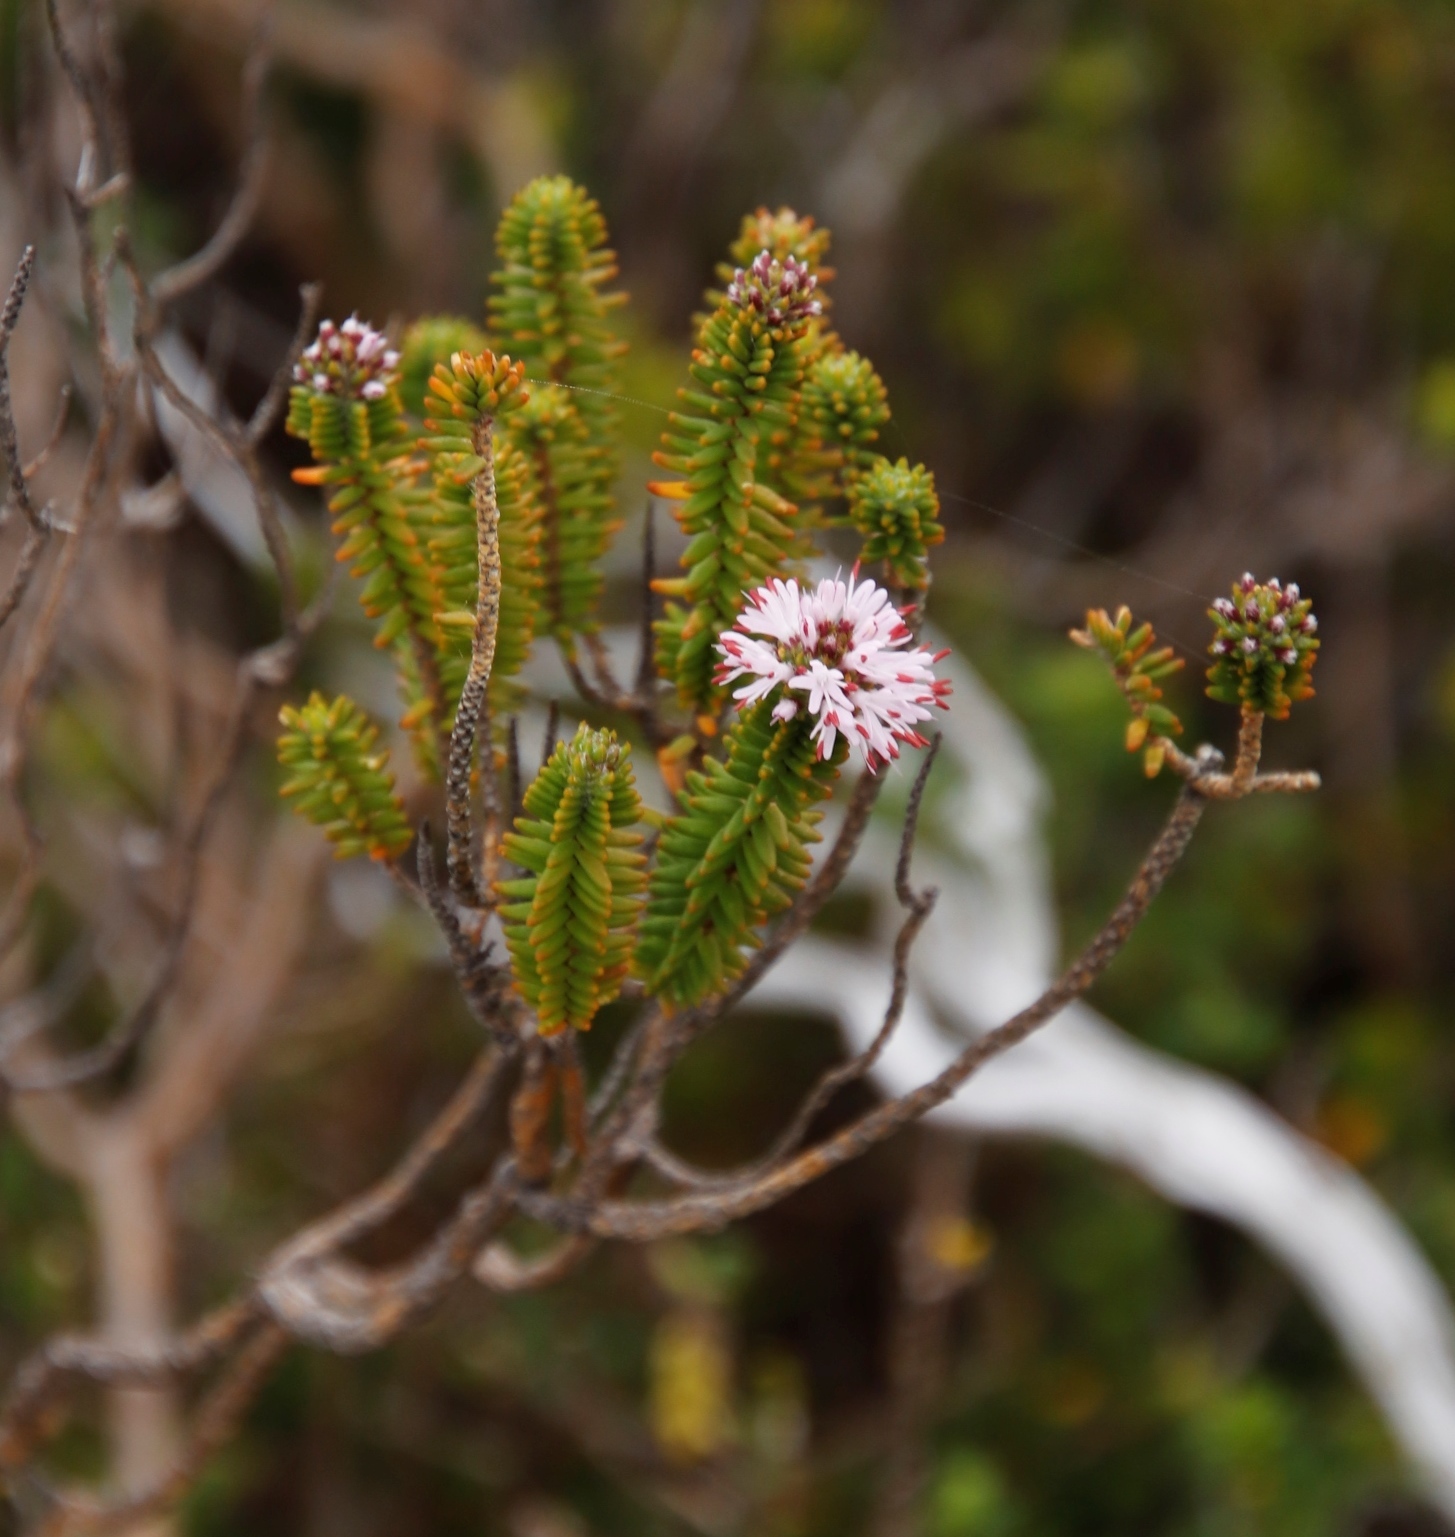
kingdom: Plantae
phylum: Tracheophyta
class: Magnoliopsida
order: Lamiales
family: Stilbaceae
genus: Stilbe
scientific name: Stilbe ericoides
